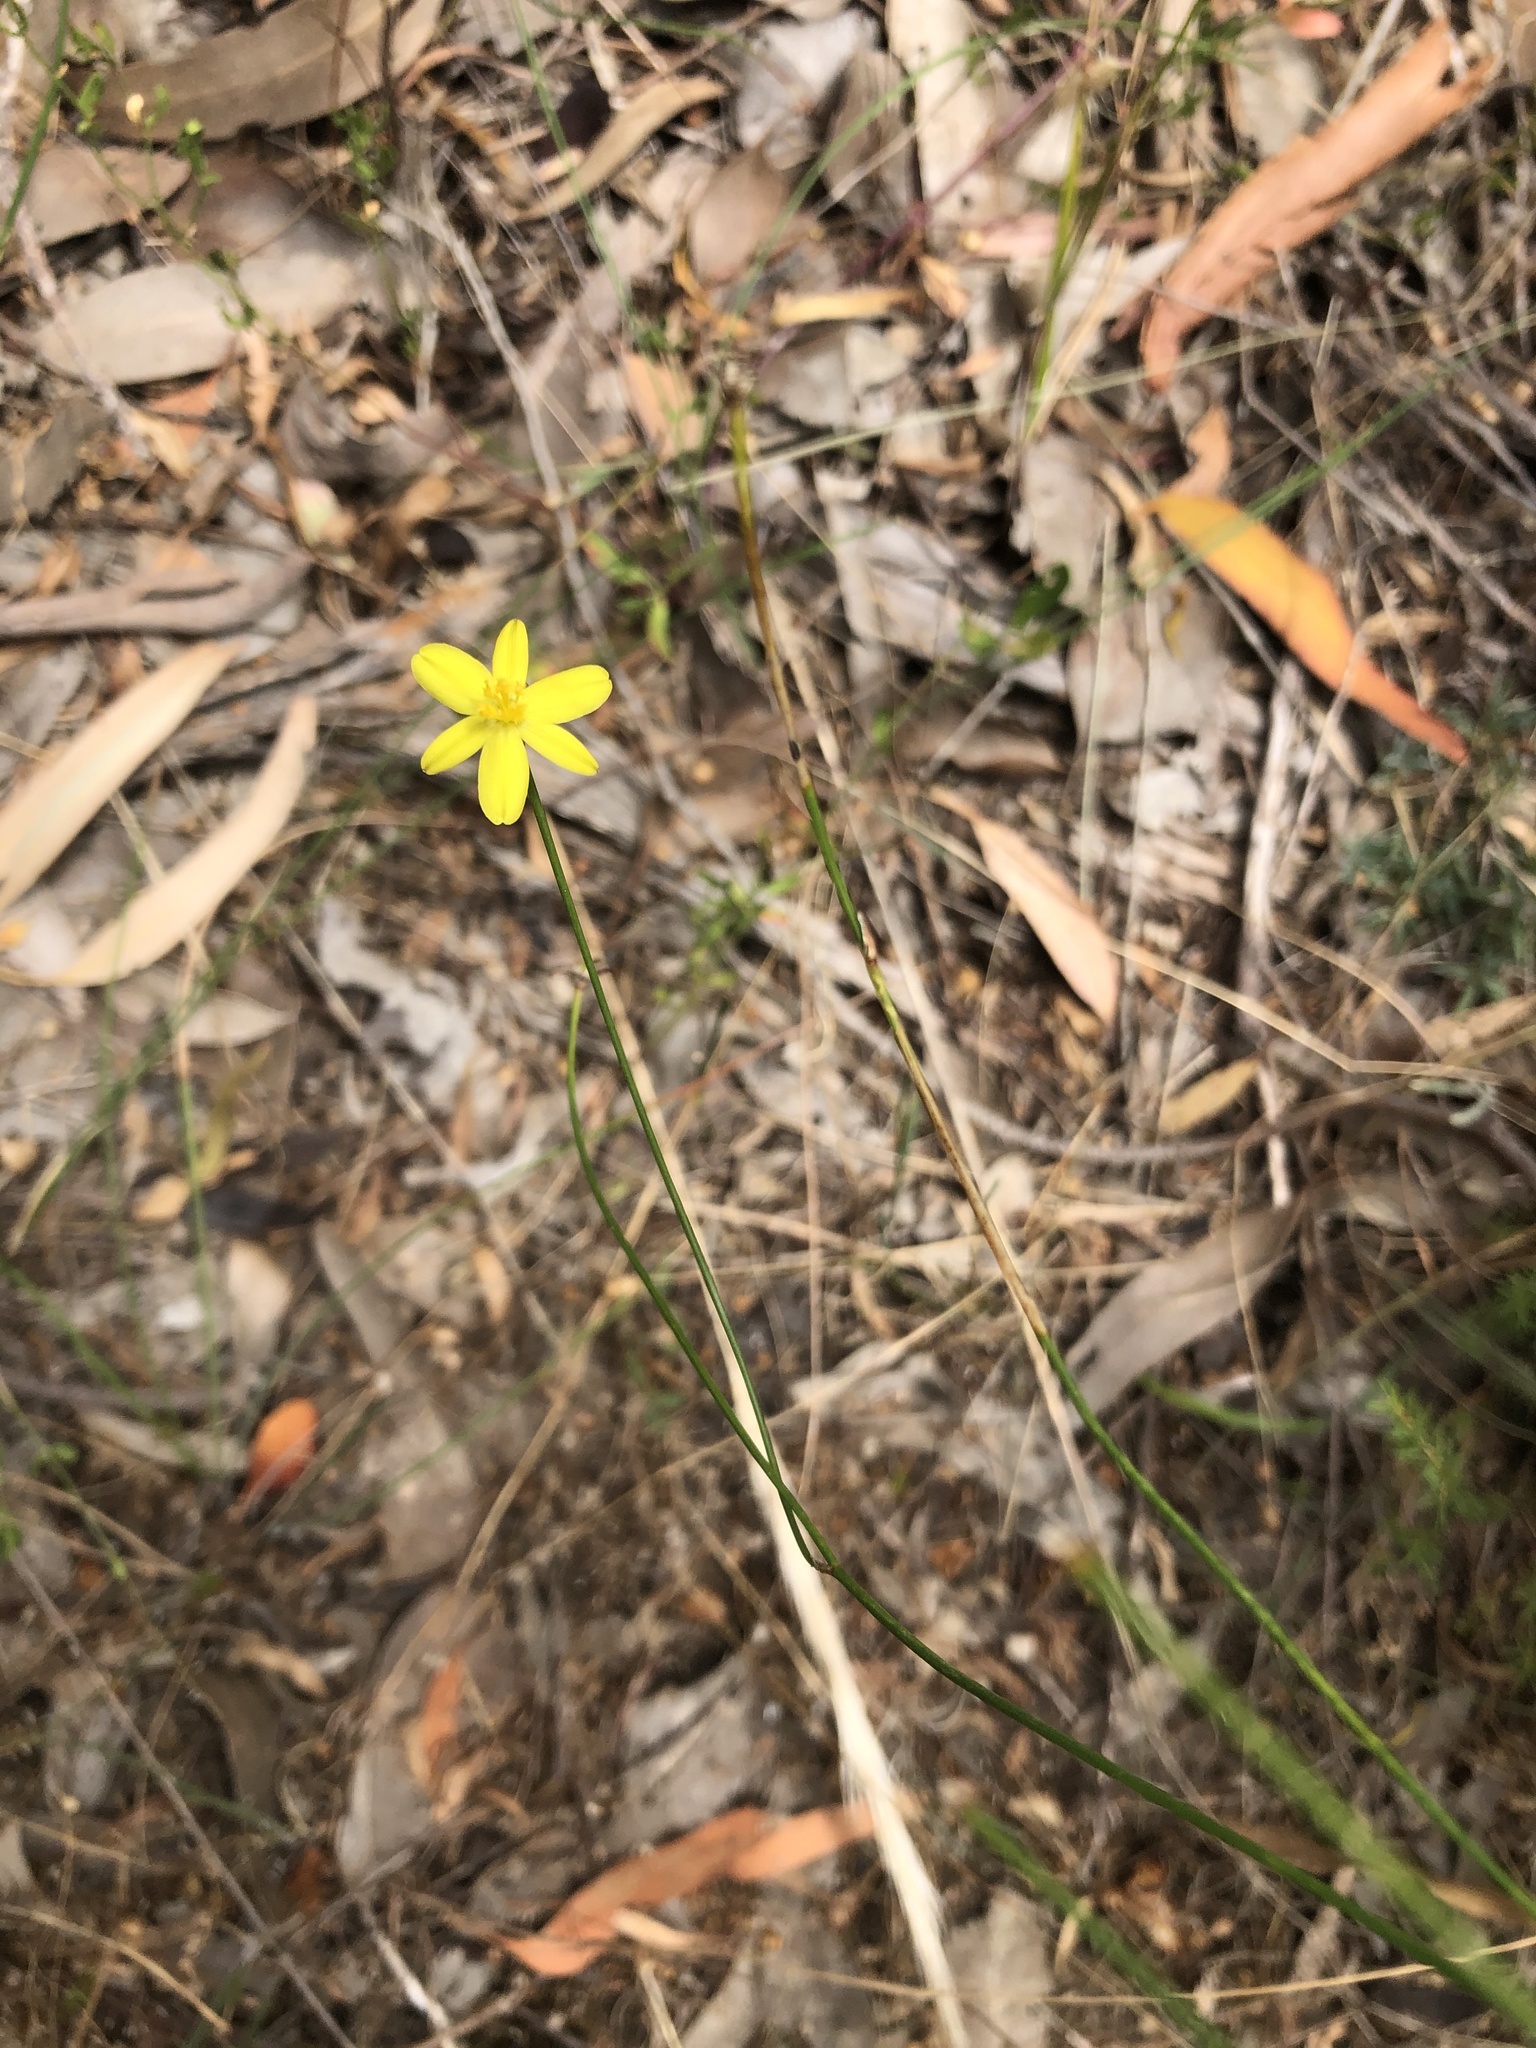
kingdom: Plantae
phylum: Tracheophyta
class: Liliopsida
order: Asparagales
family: Asphodelaceae
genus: Tricoryne
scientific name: Tricoryne elatior
